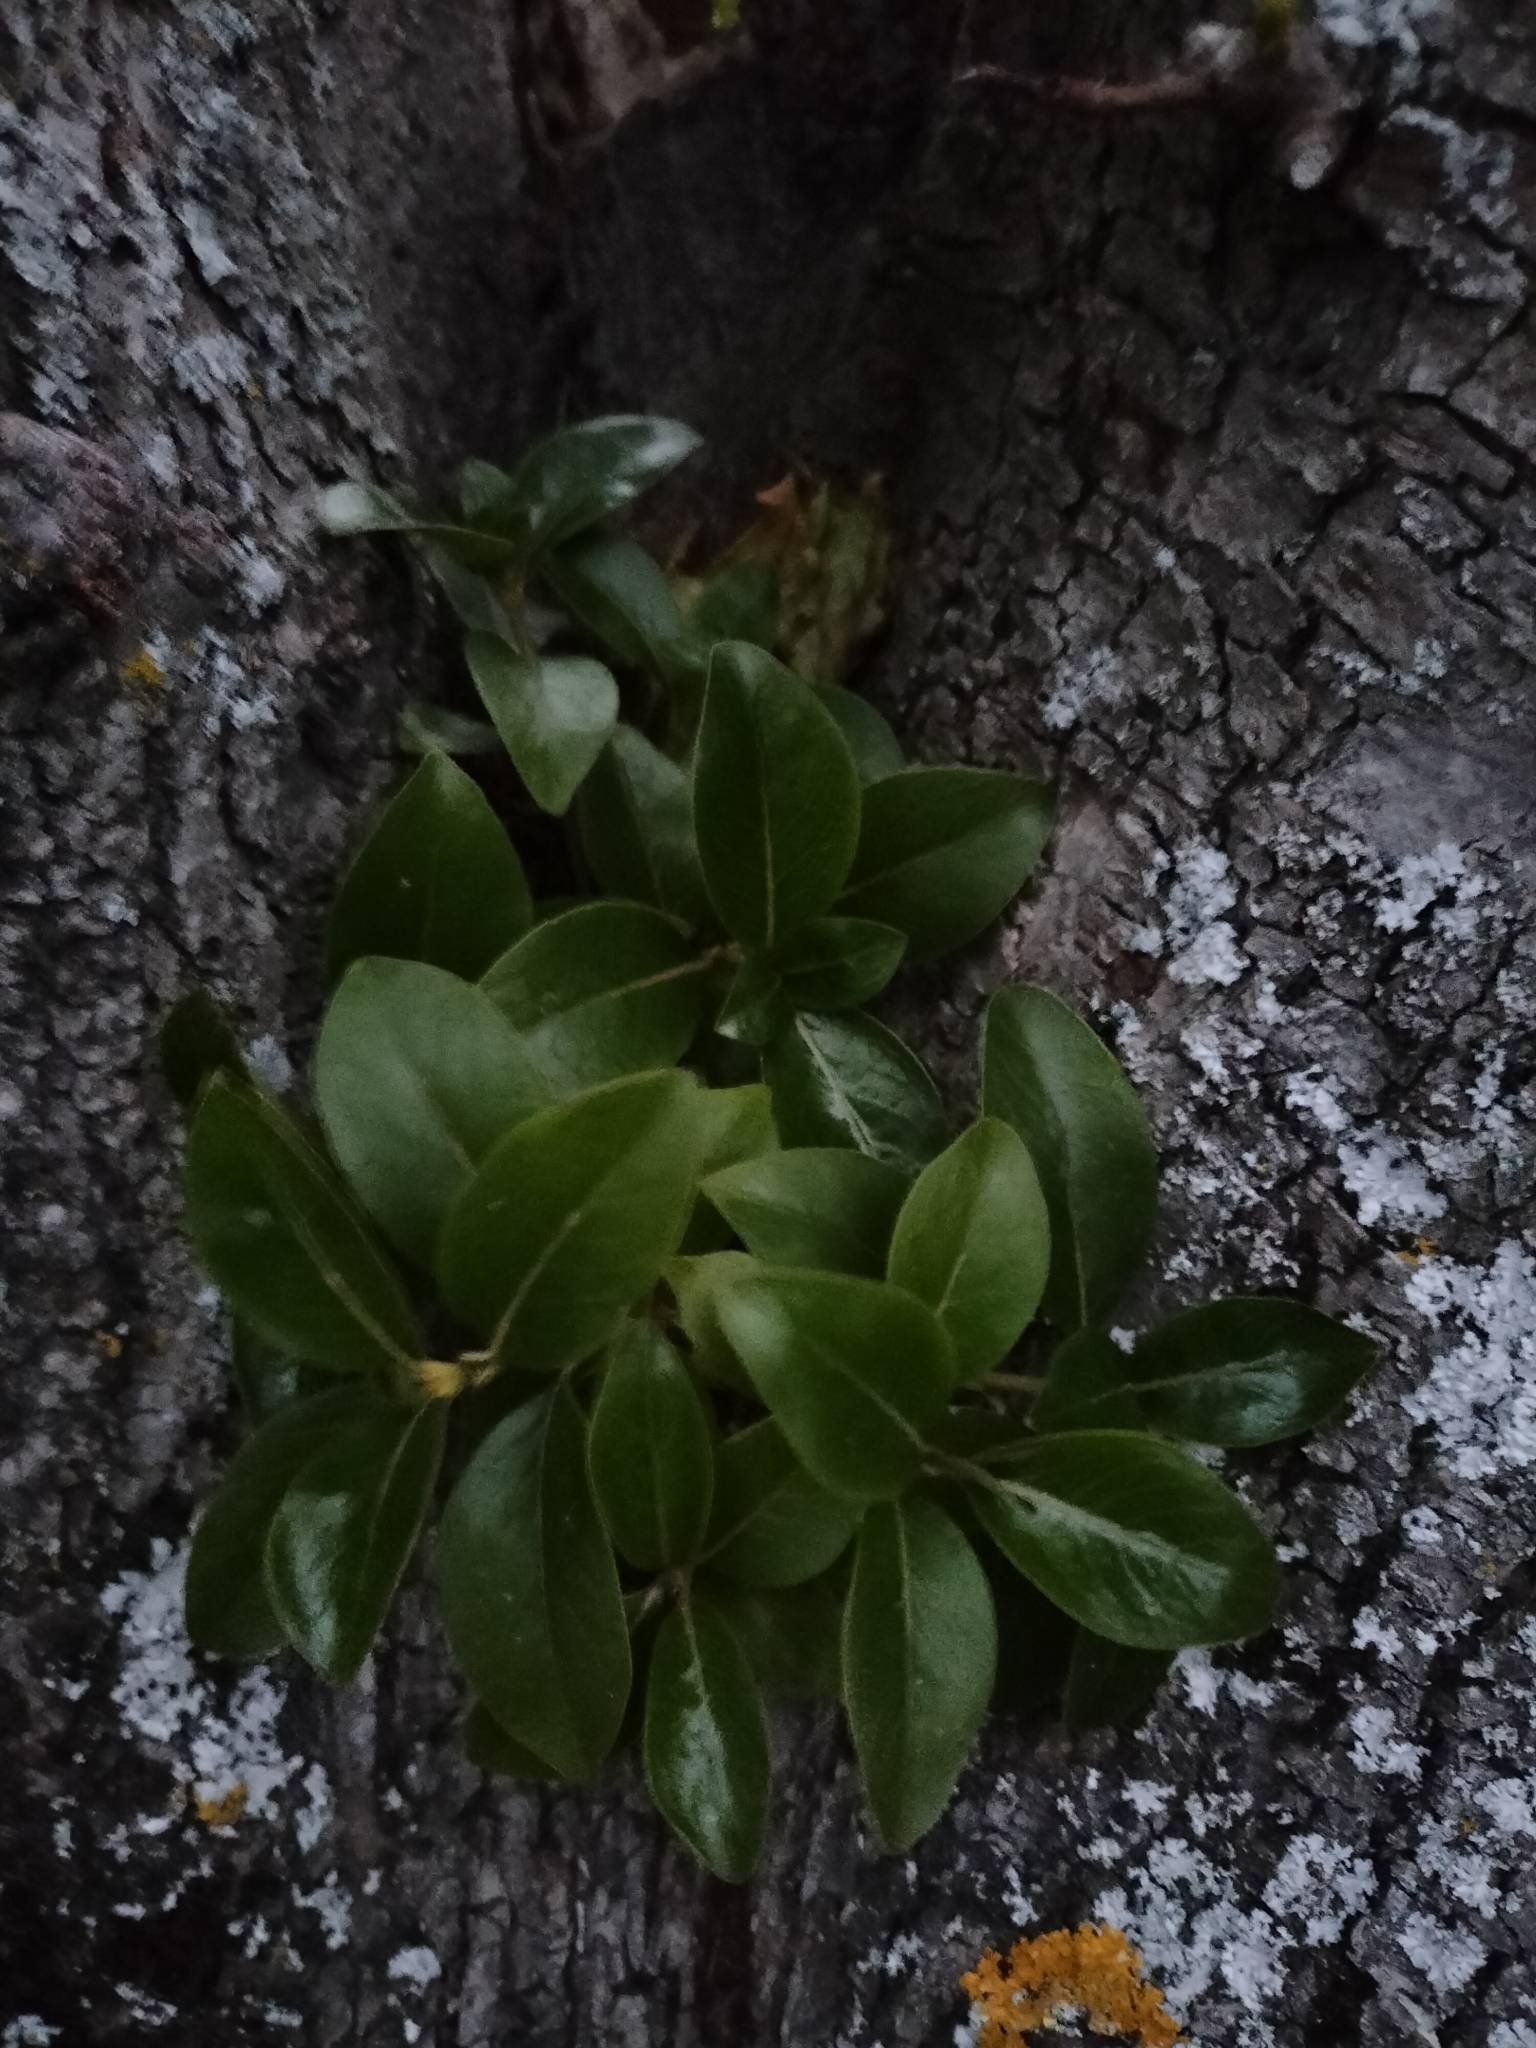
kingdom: Plantae
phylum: Tracheophyta
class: Magnoliopsida
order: Gentianales
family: Rubiaceae
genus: Coprosma
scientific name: Coprosma robusta
